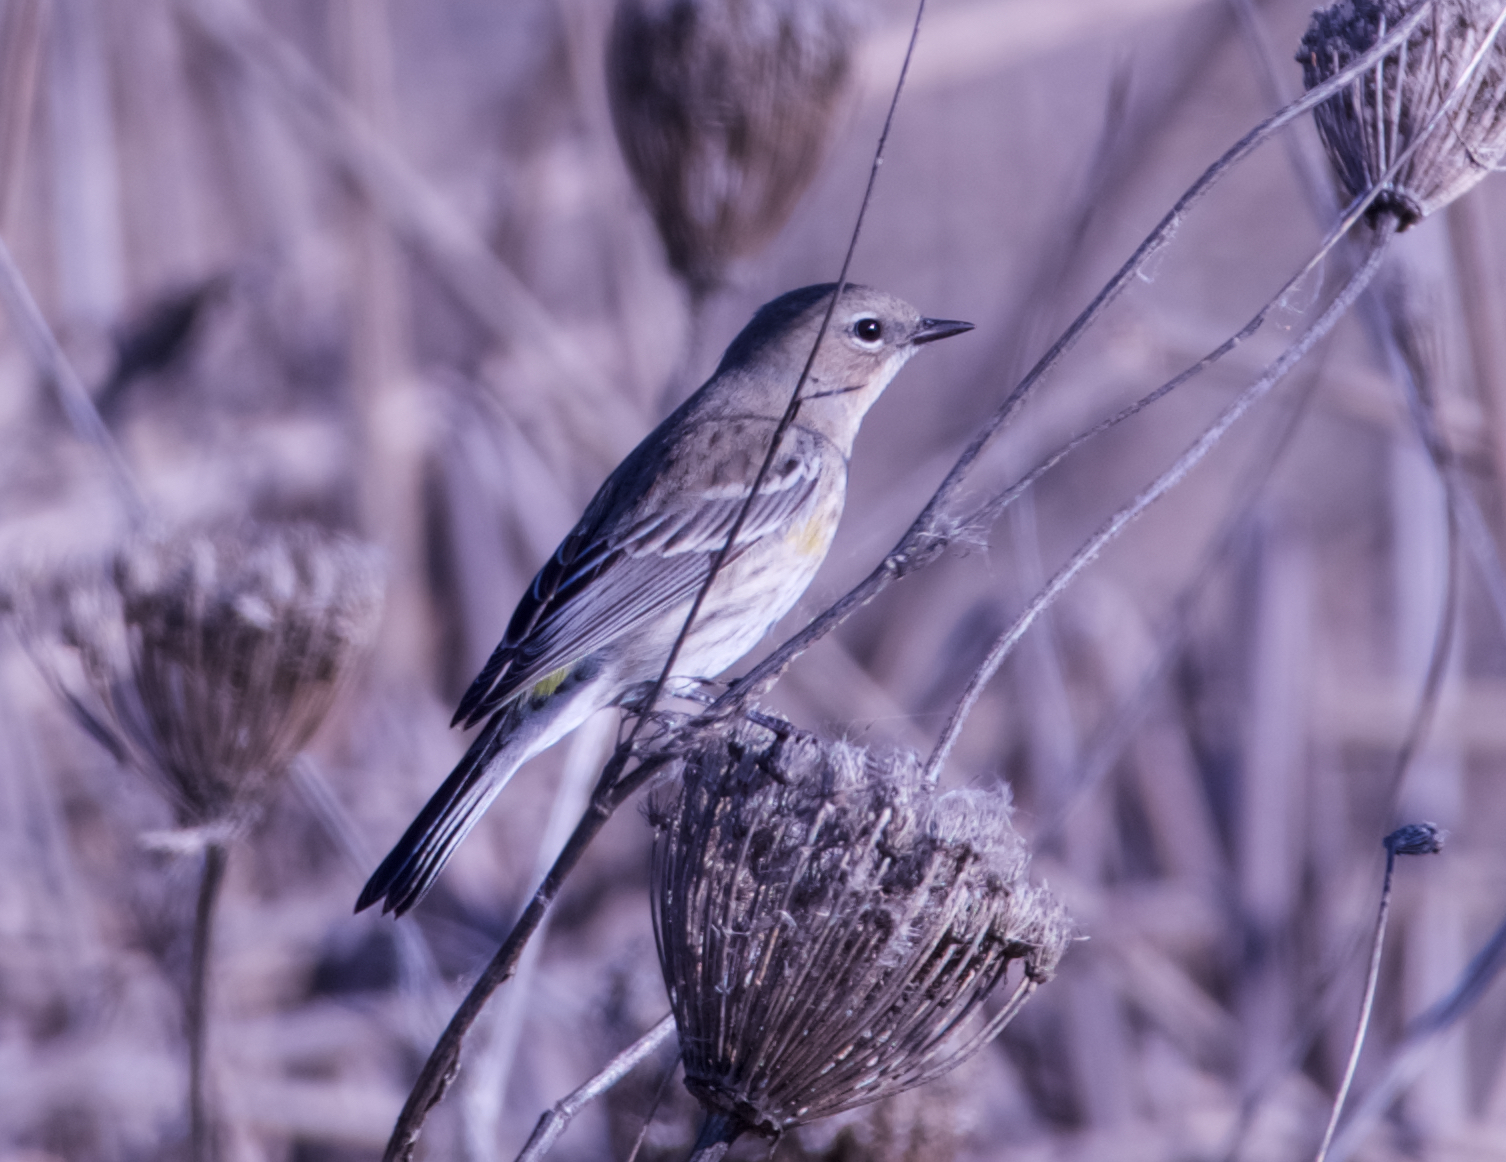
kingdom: Animalia
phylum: Chordata
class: Aves
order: Passeriformes
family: Parulidae
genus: Setophaga
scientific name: Setophaga coronata
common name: Myrtle warbler
